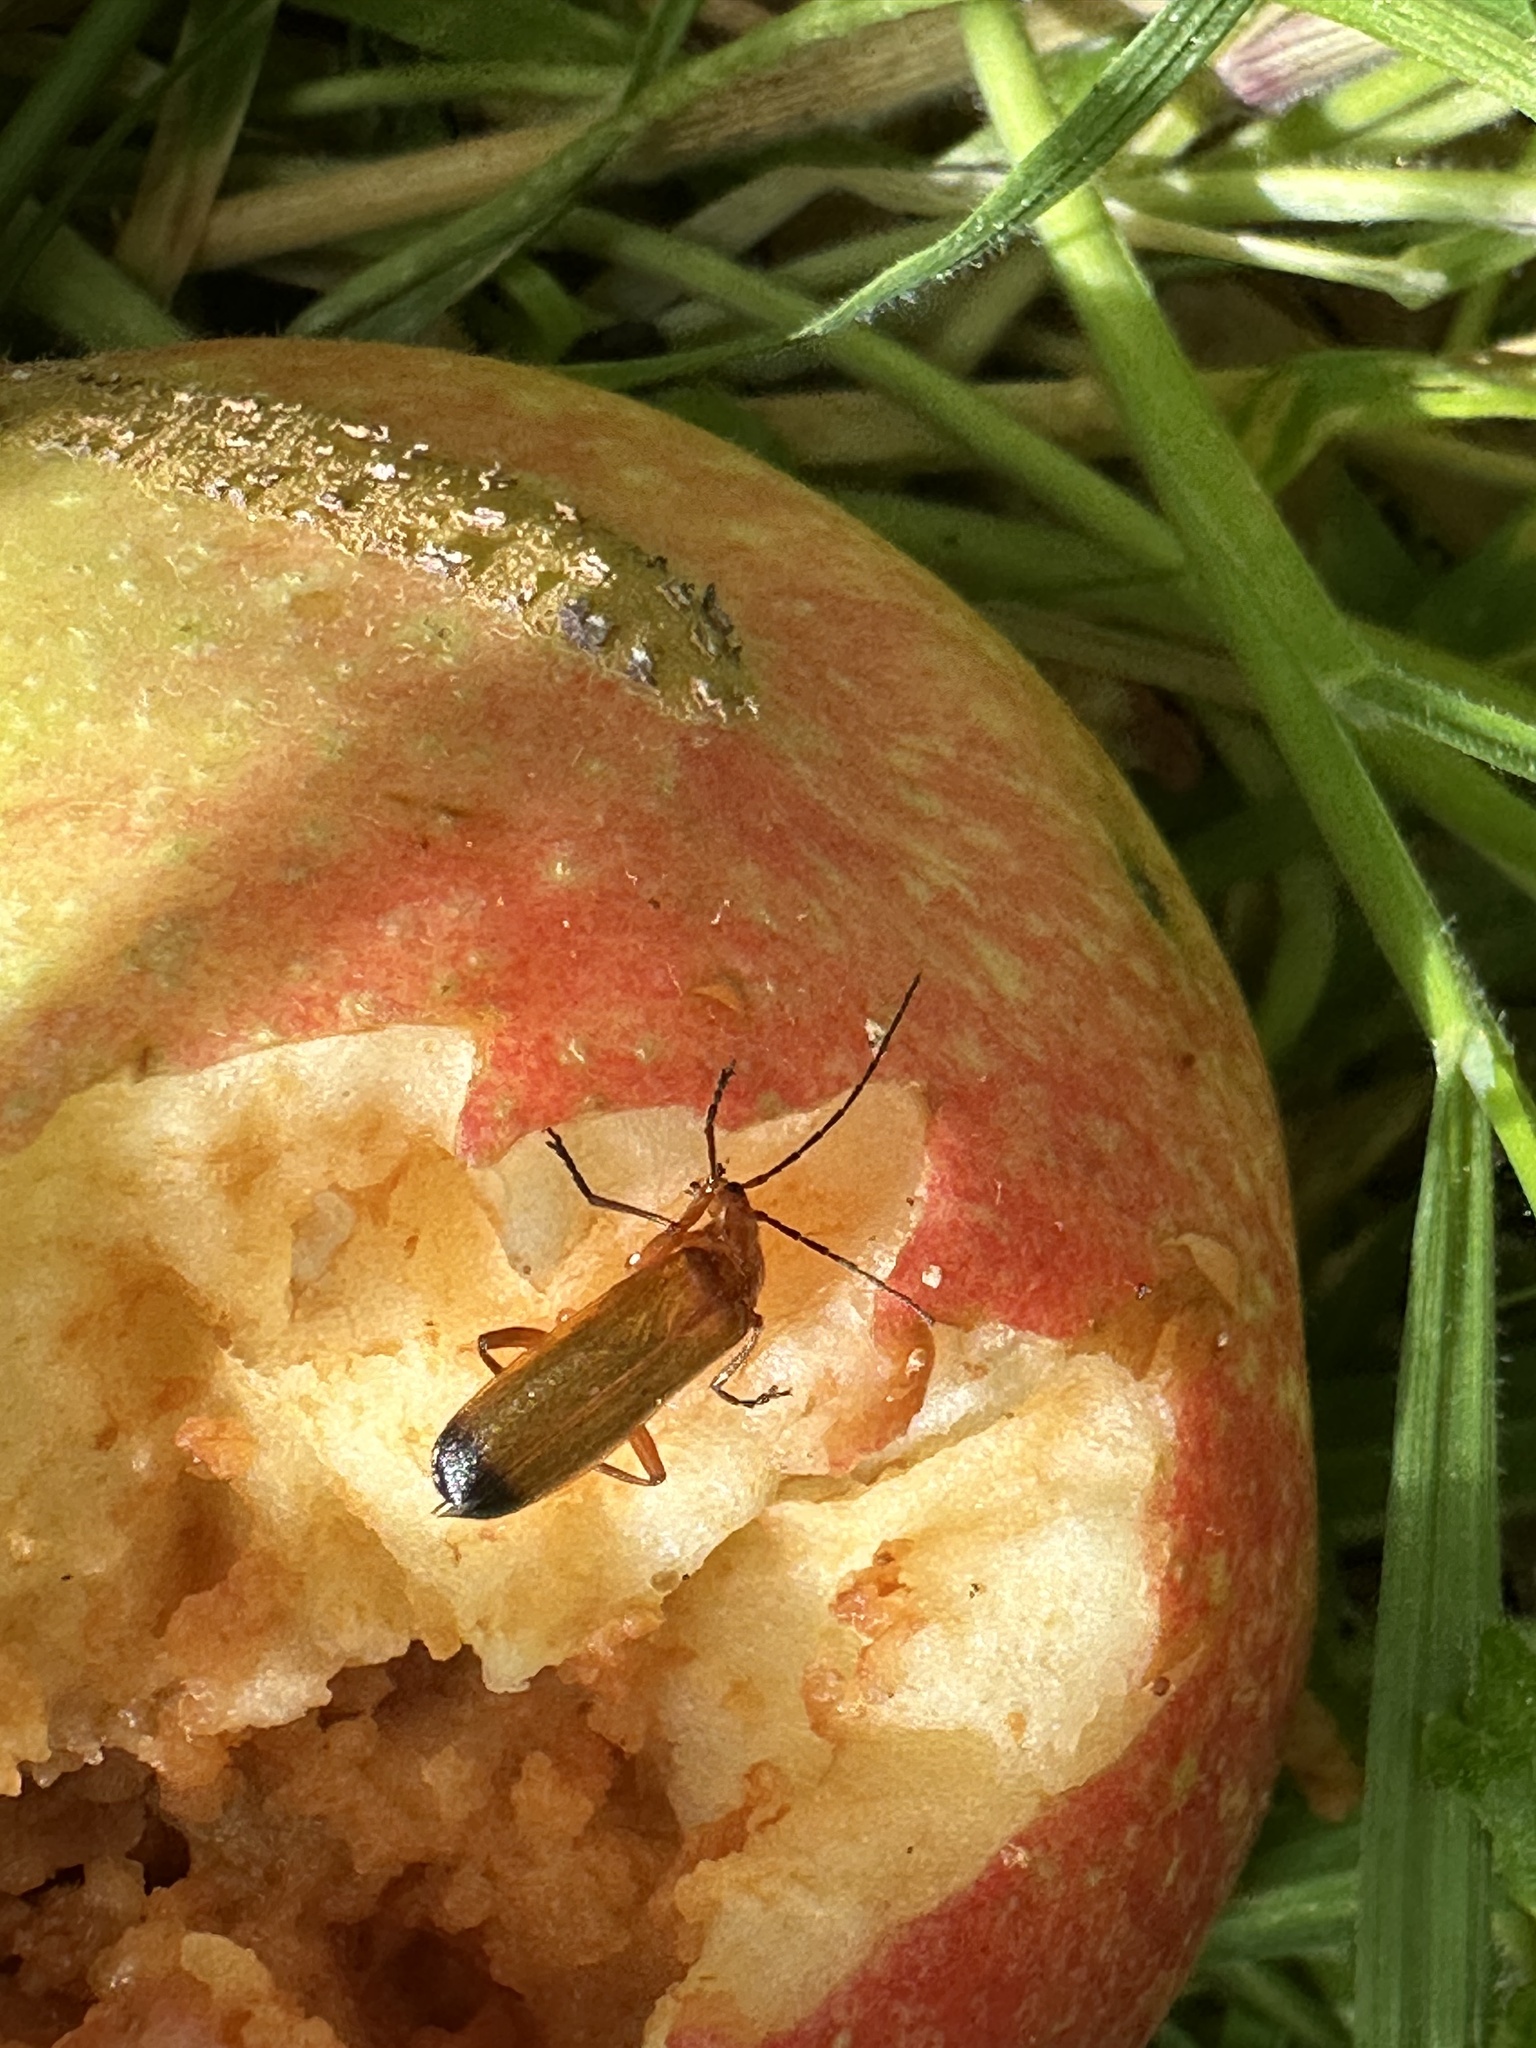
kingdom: Animalia
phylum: Arthropoda
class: Insecta
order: Coleoptera
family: Cantharidae
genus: Rhagonycha
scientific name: Rhagonycha fulva
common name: Common red soldier beetle
